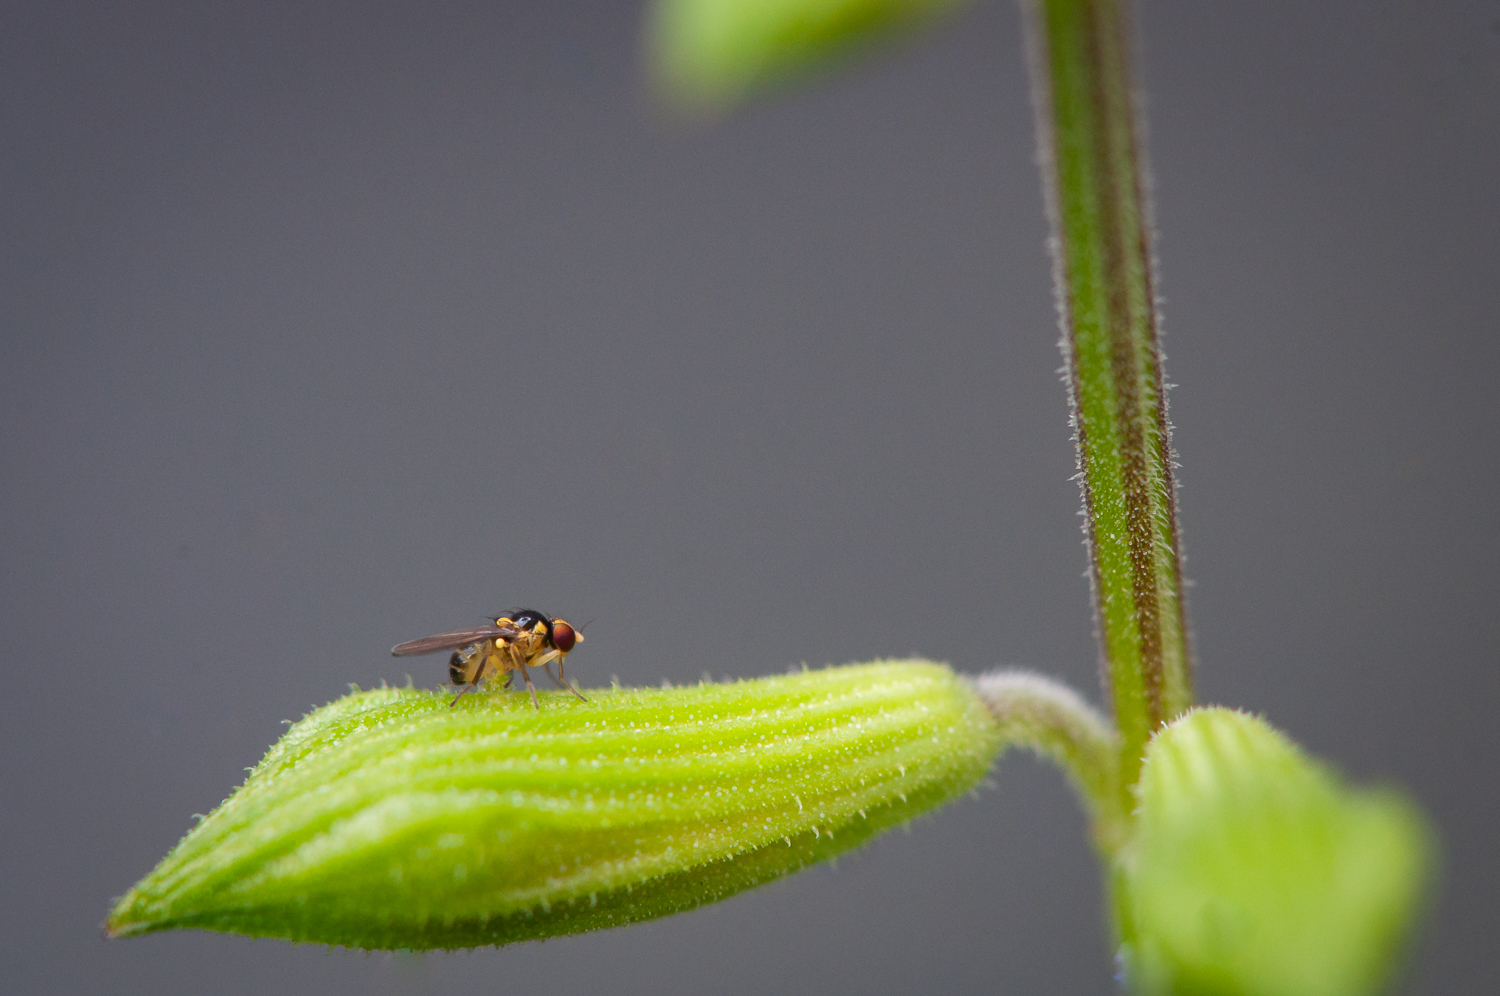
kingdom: Animalia
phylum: Arthropoda
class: Insecta
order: Diptera
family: Agromyzidae
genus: Liriomyza
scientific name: Liriomyza sativae
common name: Vegetable leafminer
